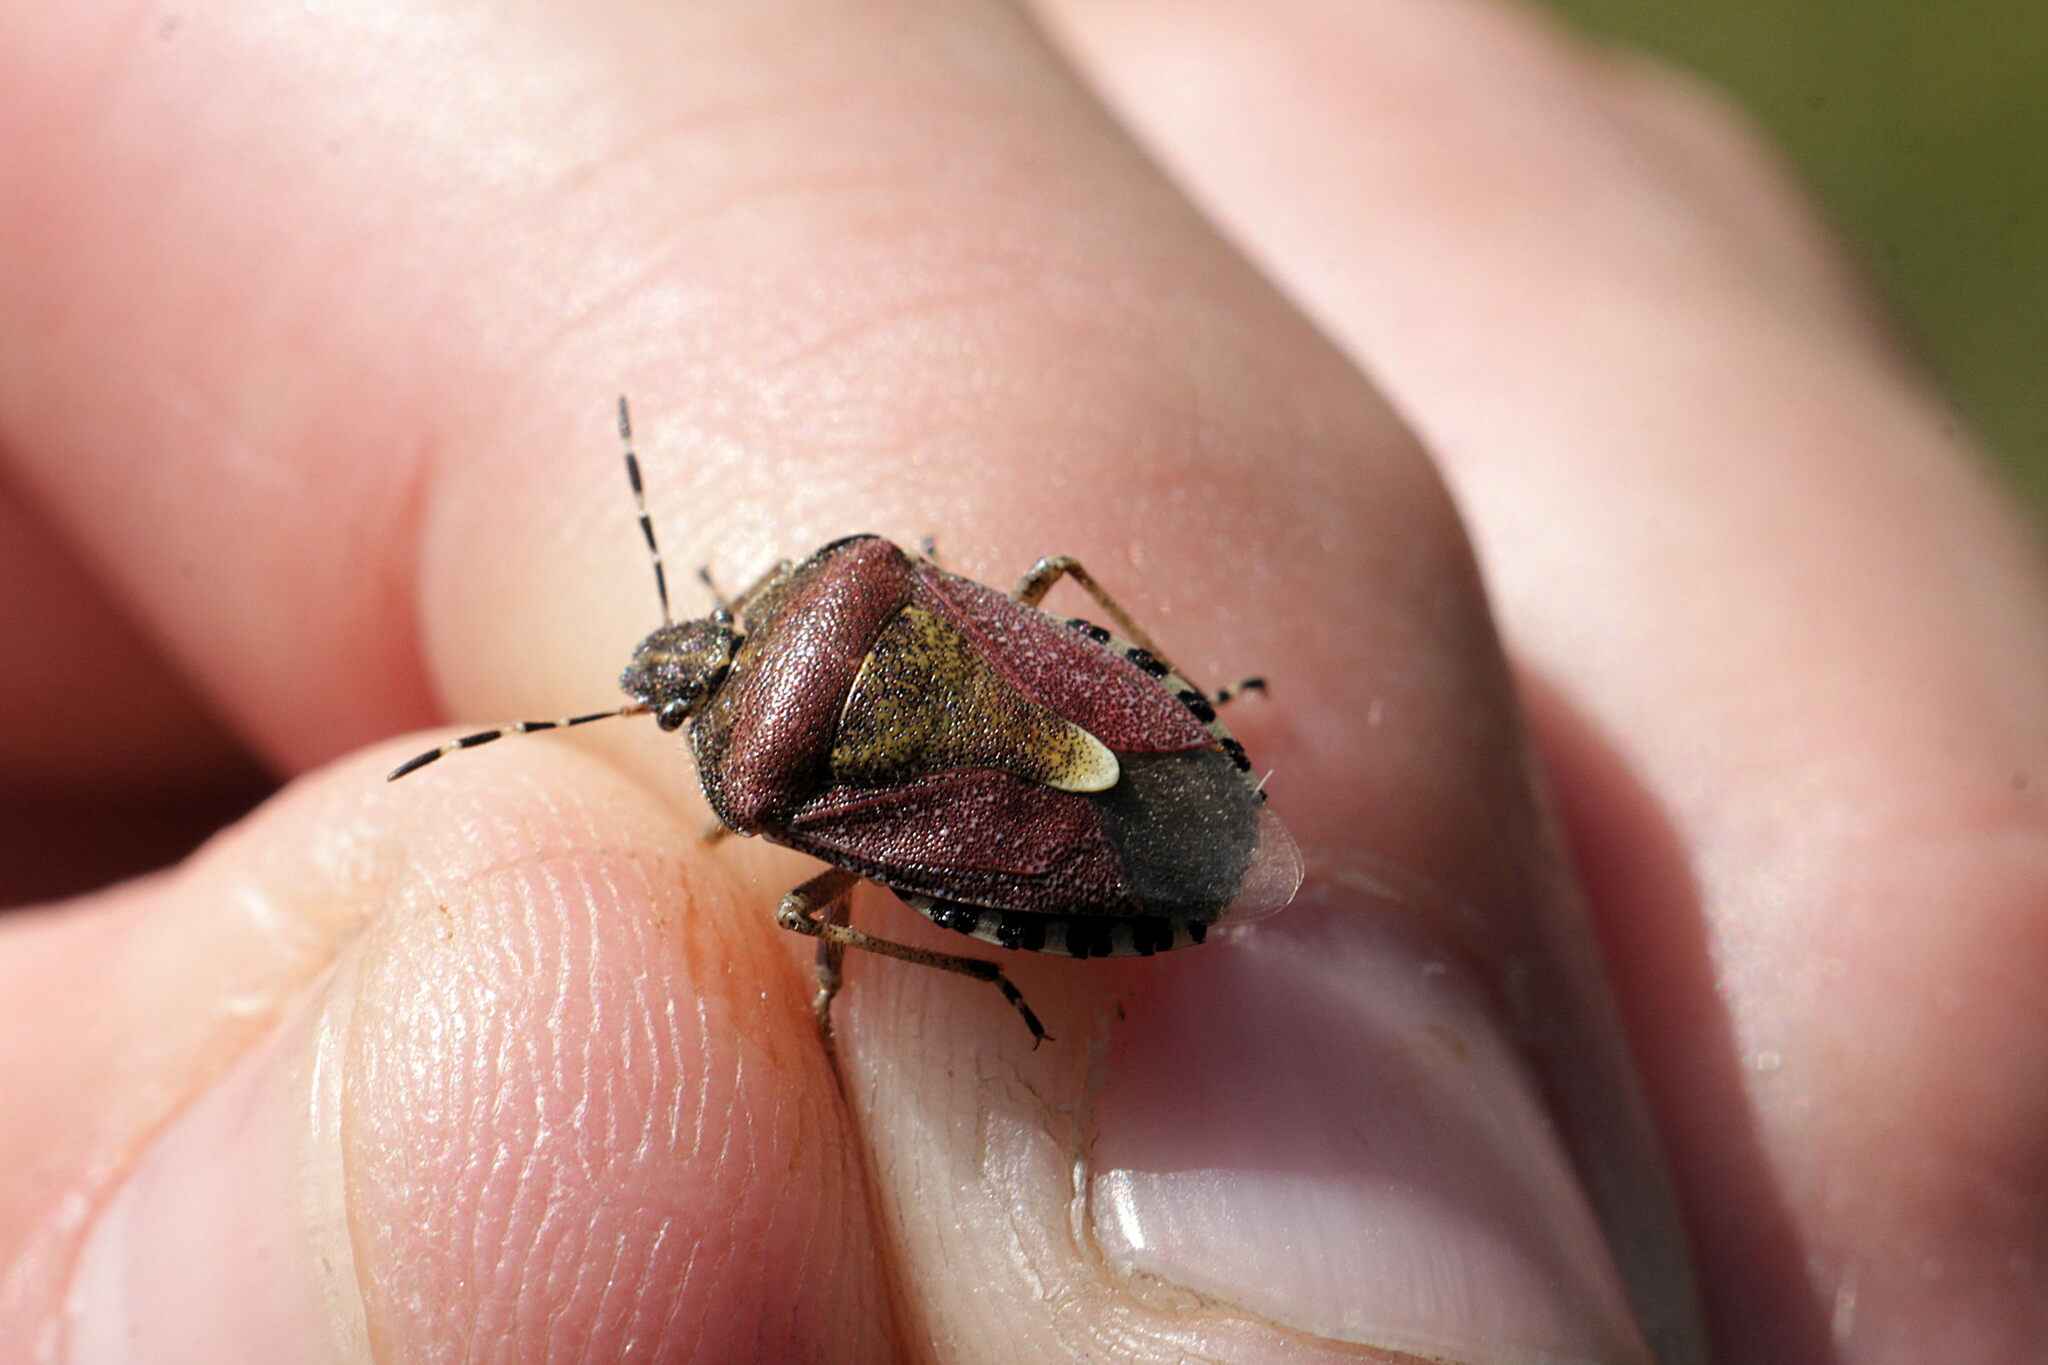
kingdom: Animalia
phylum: Arthropoda
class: Insecta
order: Hemiptera
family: Pentatomidae
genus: Dolycoris
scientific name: Dolycoris baccarum
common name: Sloe bug
